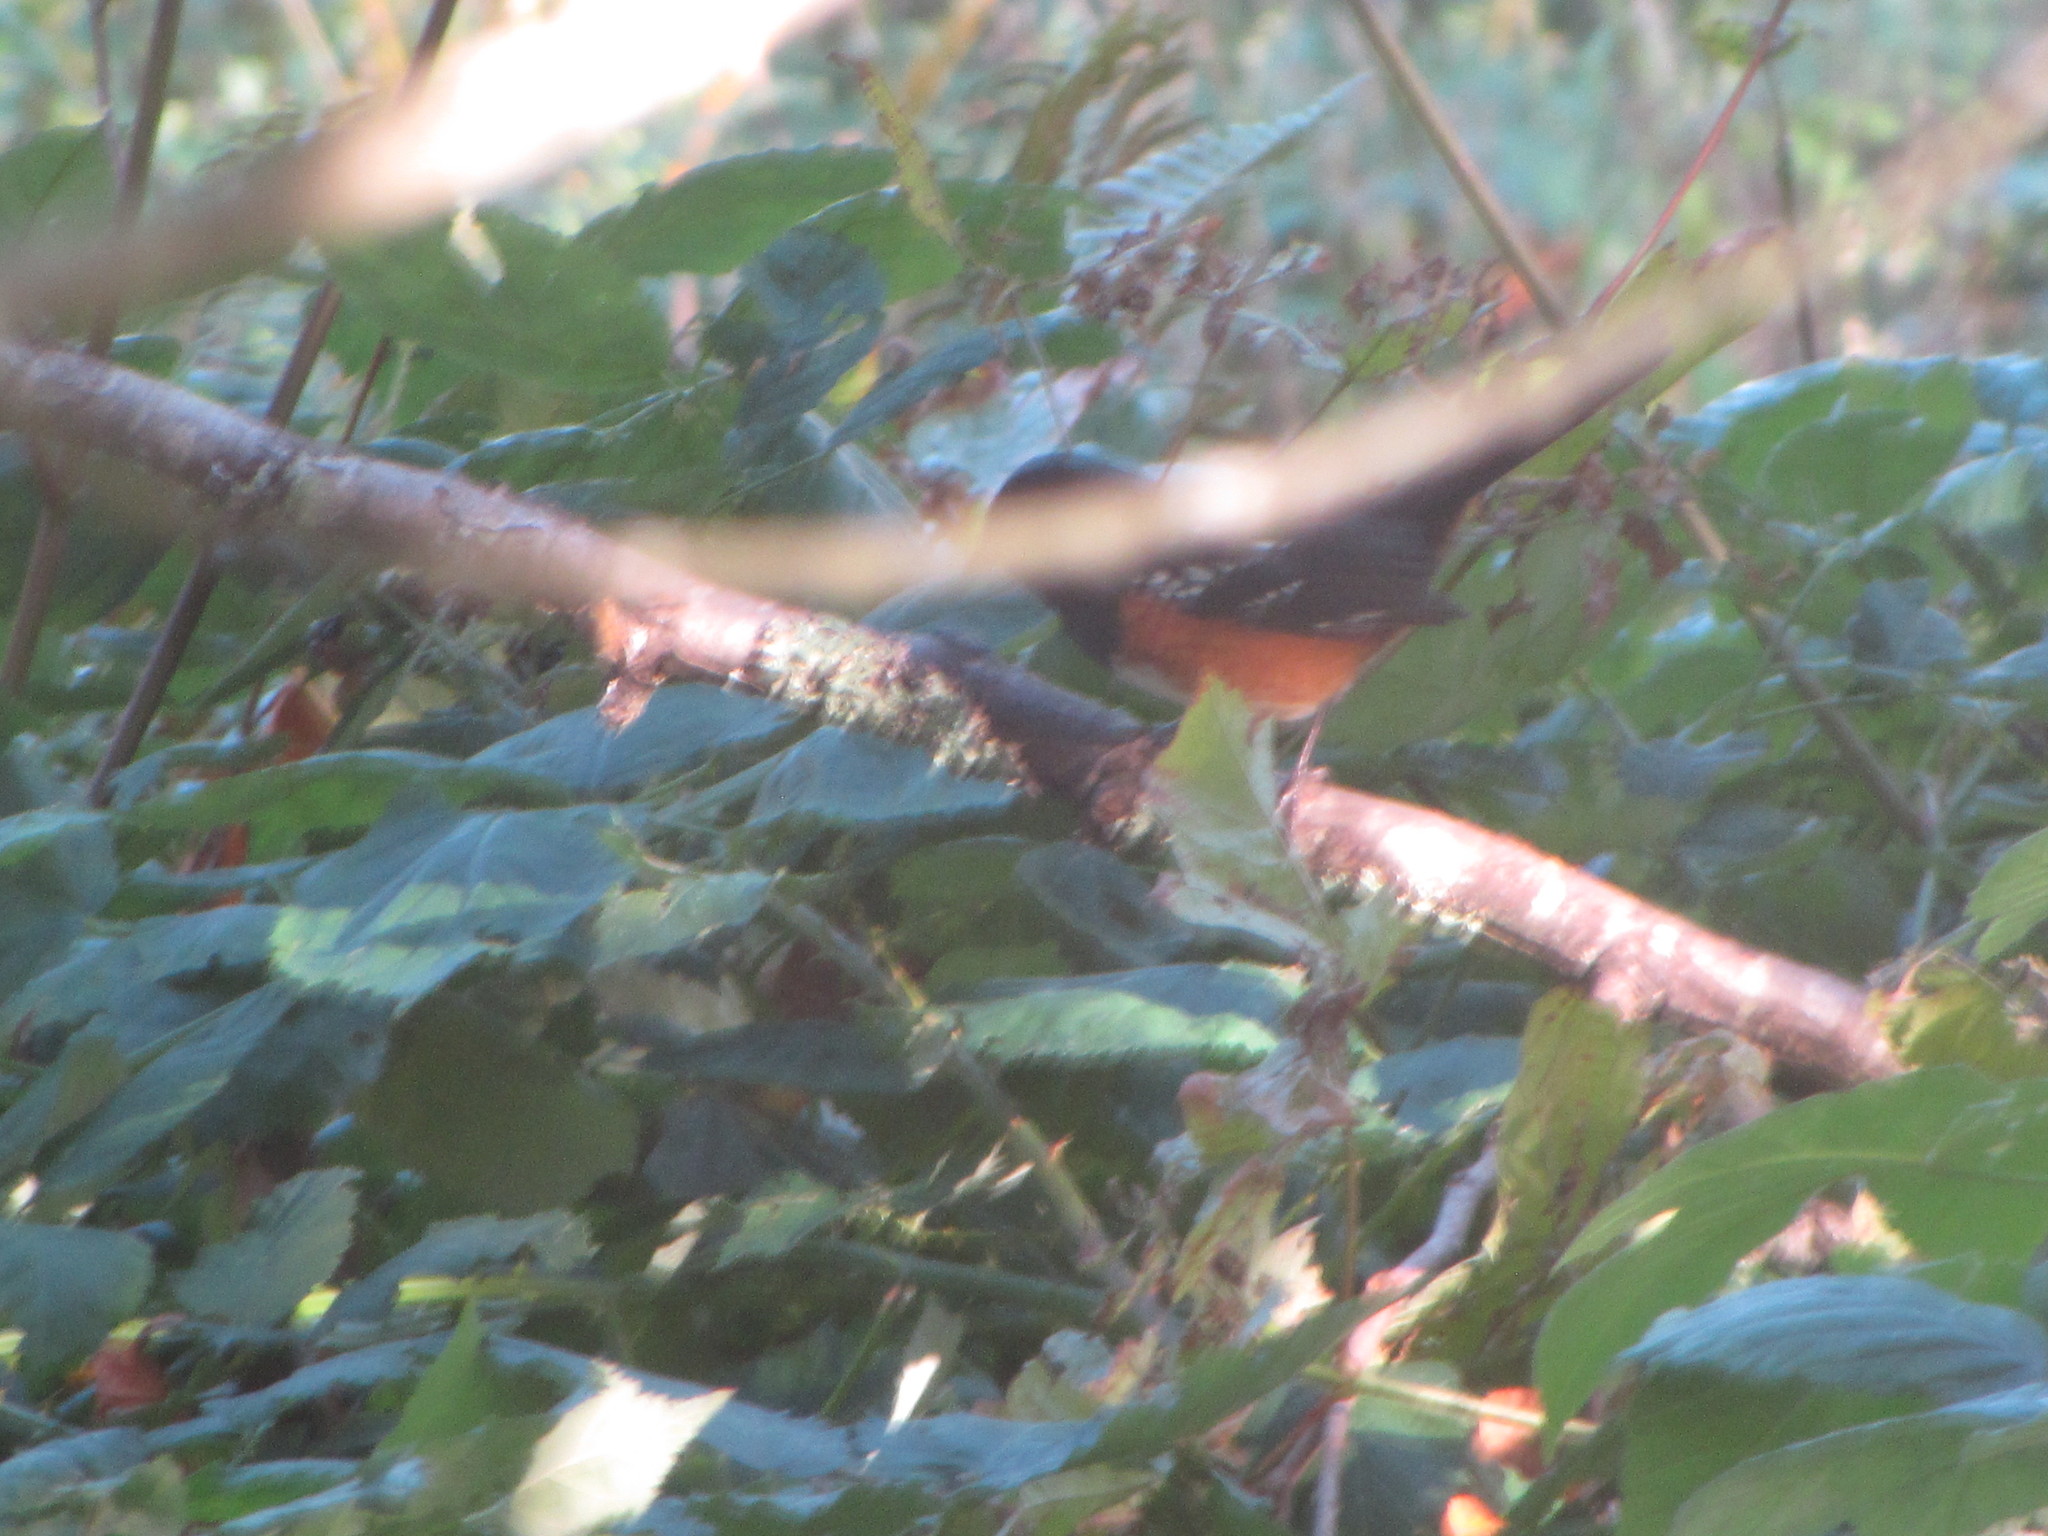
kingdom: Animalia
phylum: Chordata
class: Aves
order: Passeriformes
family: Passerellidae
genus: Pipilo
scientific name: Pipilo maculatus
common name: Spotted towhee
